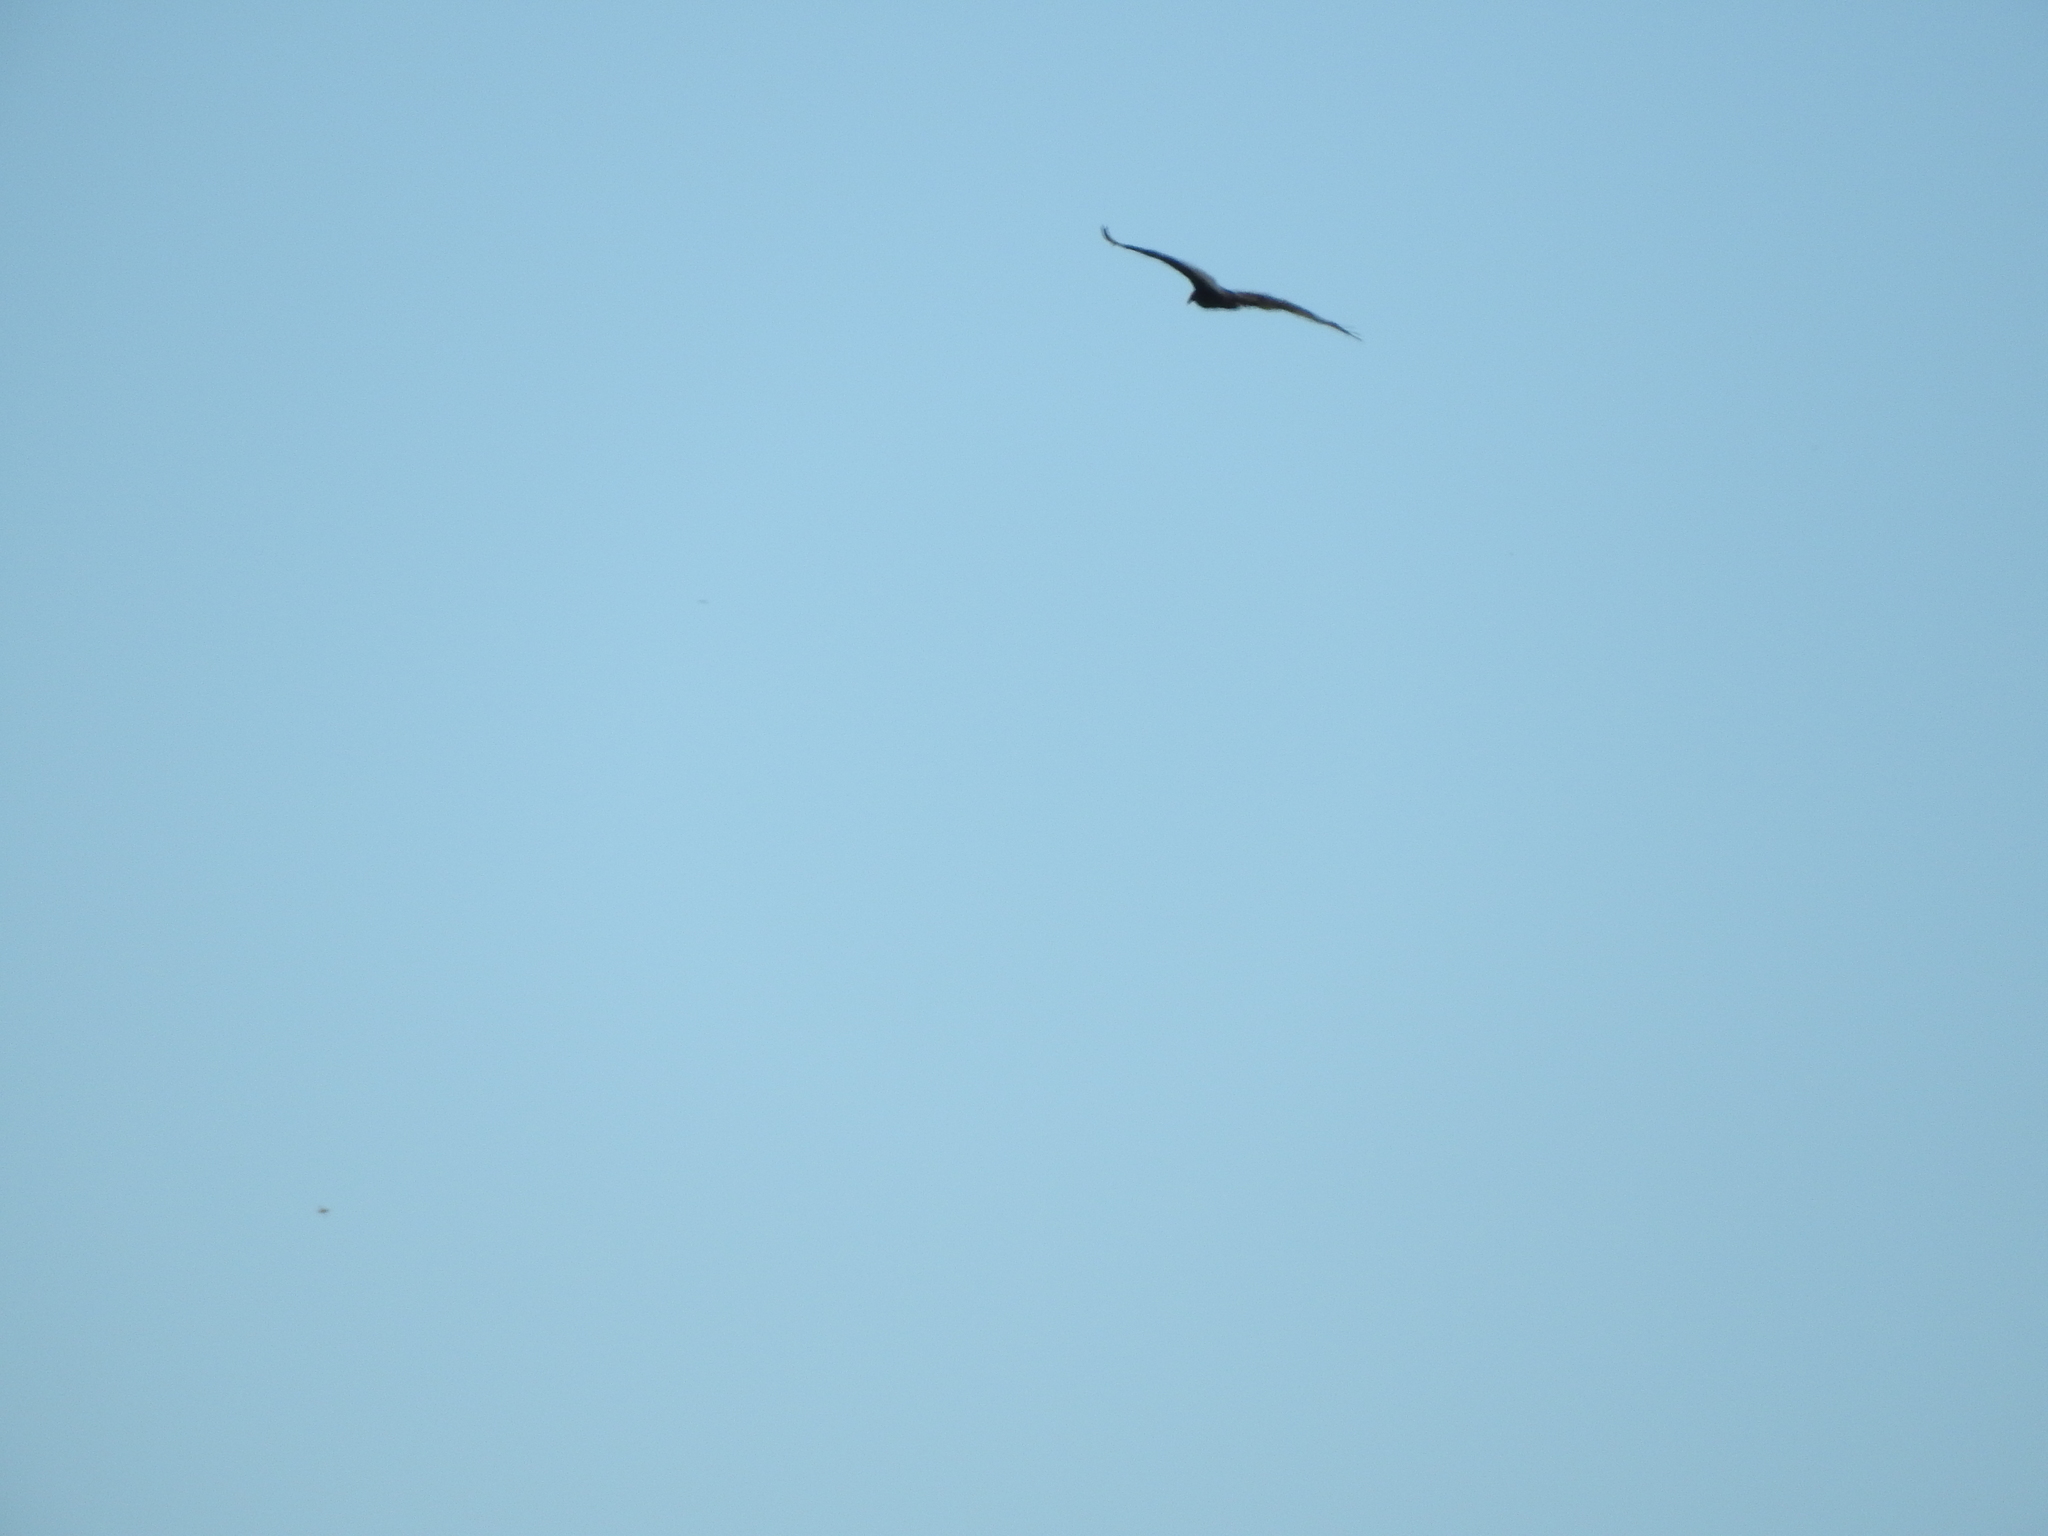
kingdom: Animalia
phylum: Chordata
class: Aves
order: Accipitriformes
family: Cathartidae
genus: Cathartes
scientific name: Cathartes
